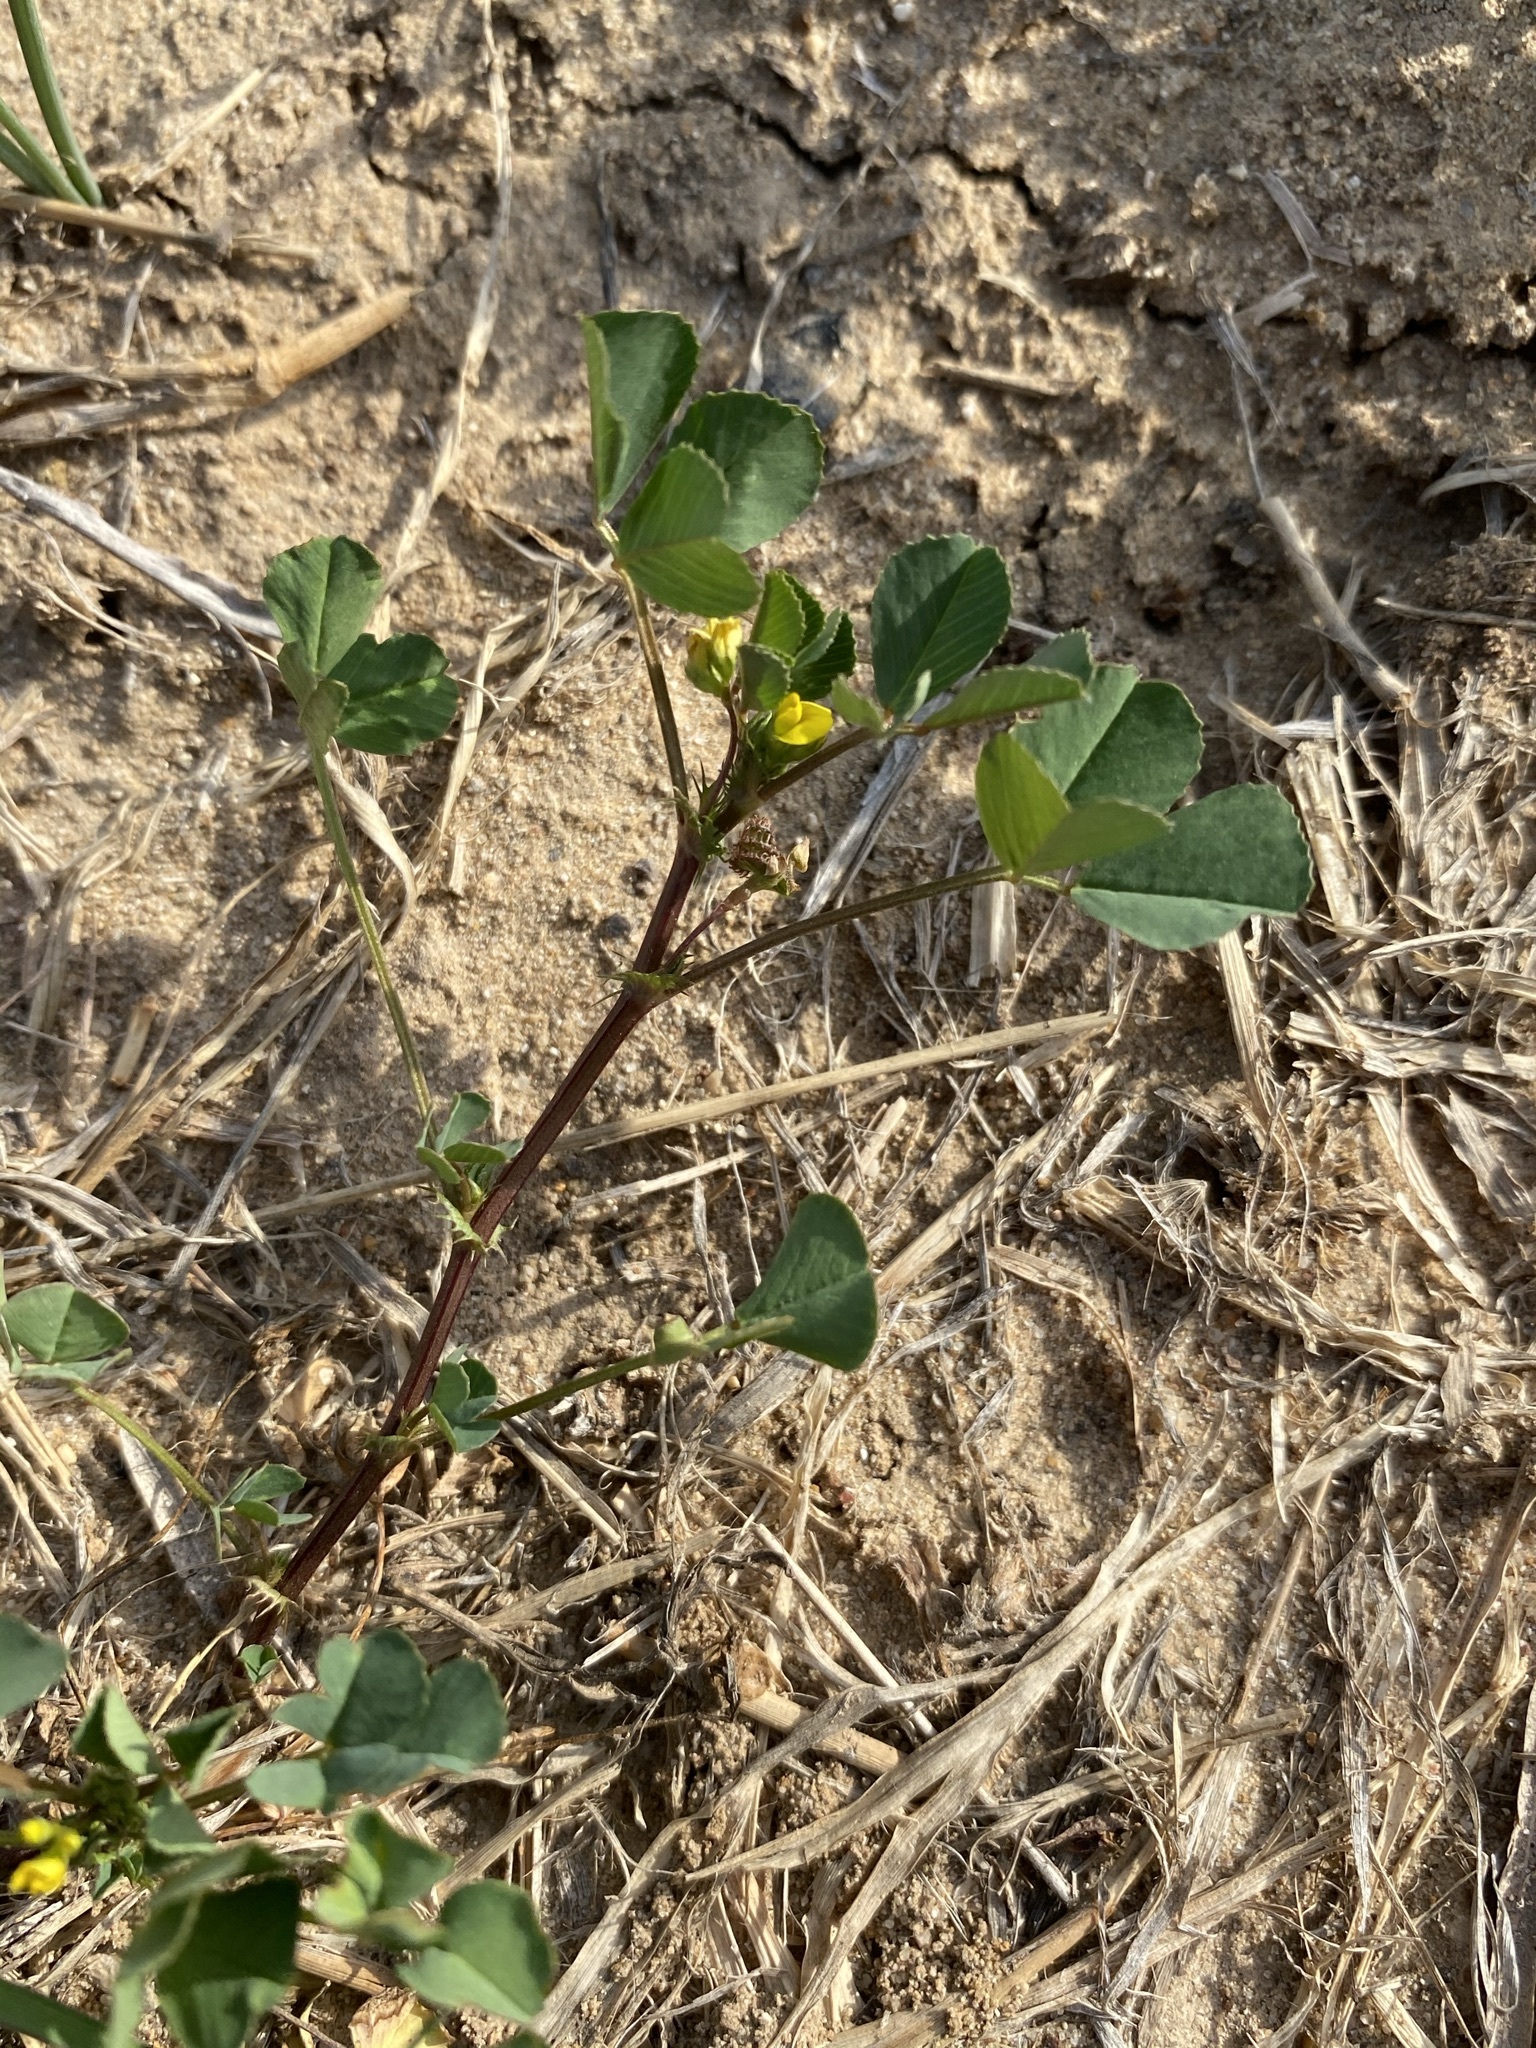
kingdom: Plantae
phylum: Tracheophyta
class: Magnoliopsida
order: Fabales
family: Fabaceae
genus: Medicago
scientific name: Medicago polymorpha
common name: Burclover
